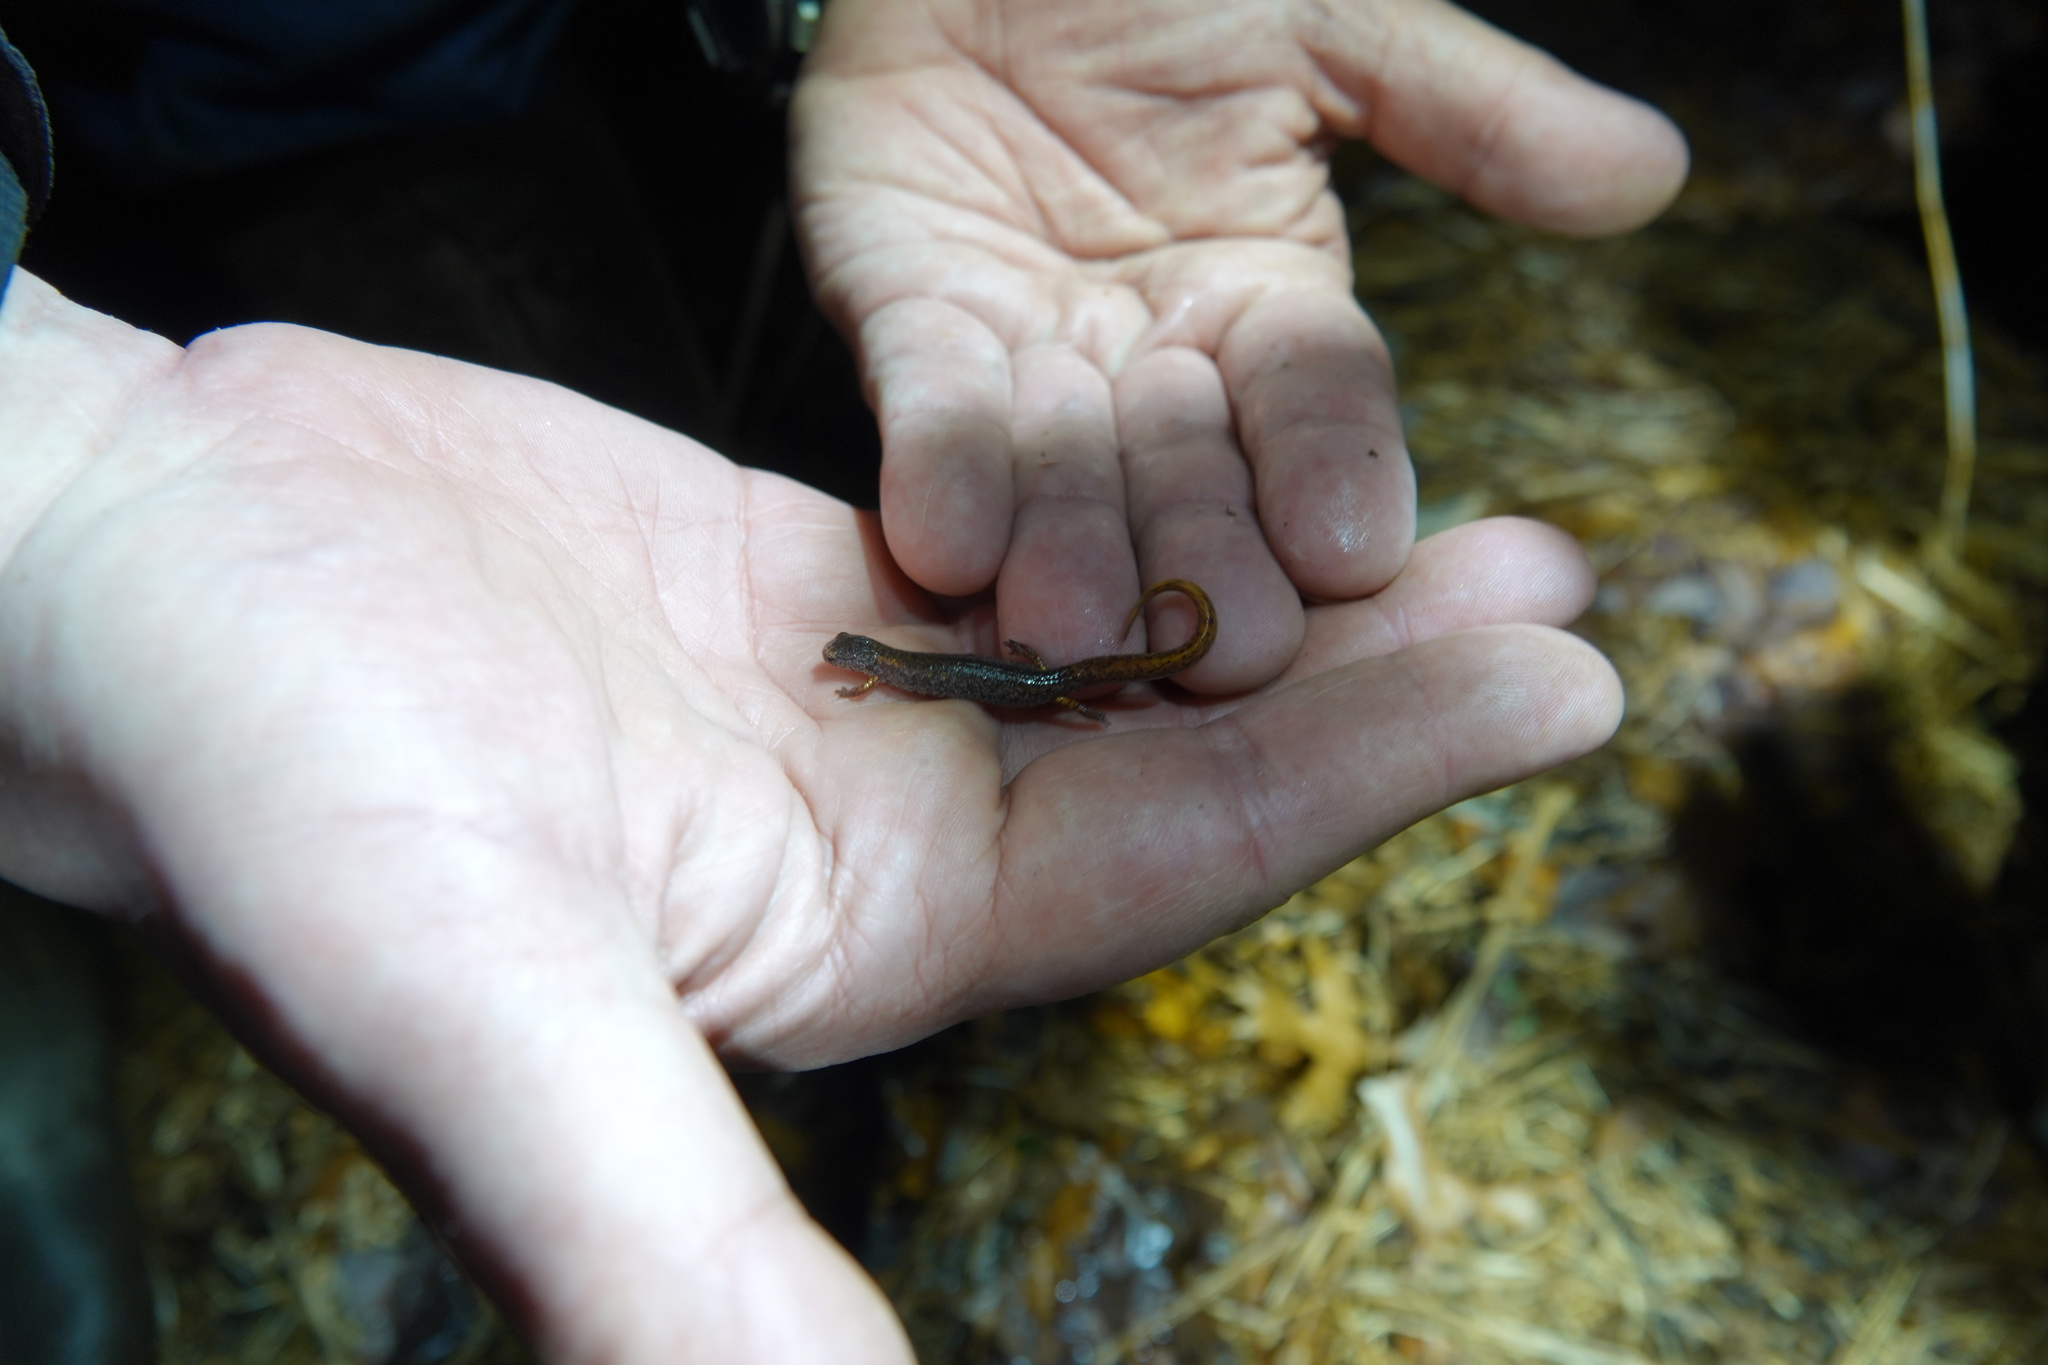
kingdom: Animalia
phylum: Chordata
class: Amphibia
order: Caudata
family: Plethodontidae
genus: Hemidactylium
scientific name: Hemidactylium scutatum
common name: Four-toed salamander
